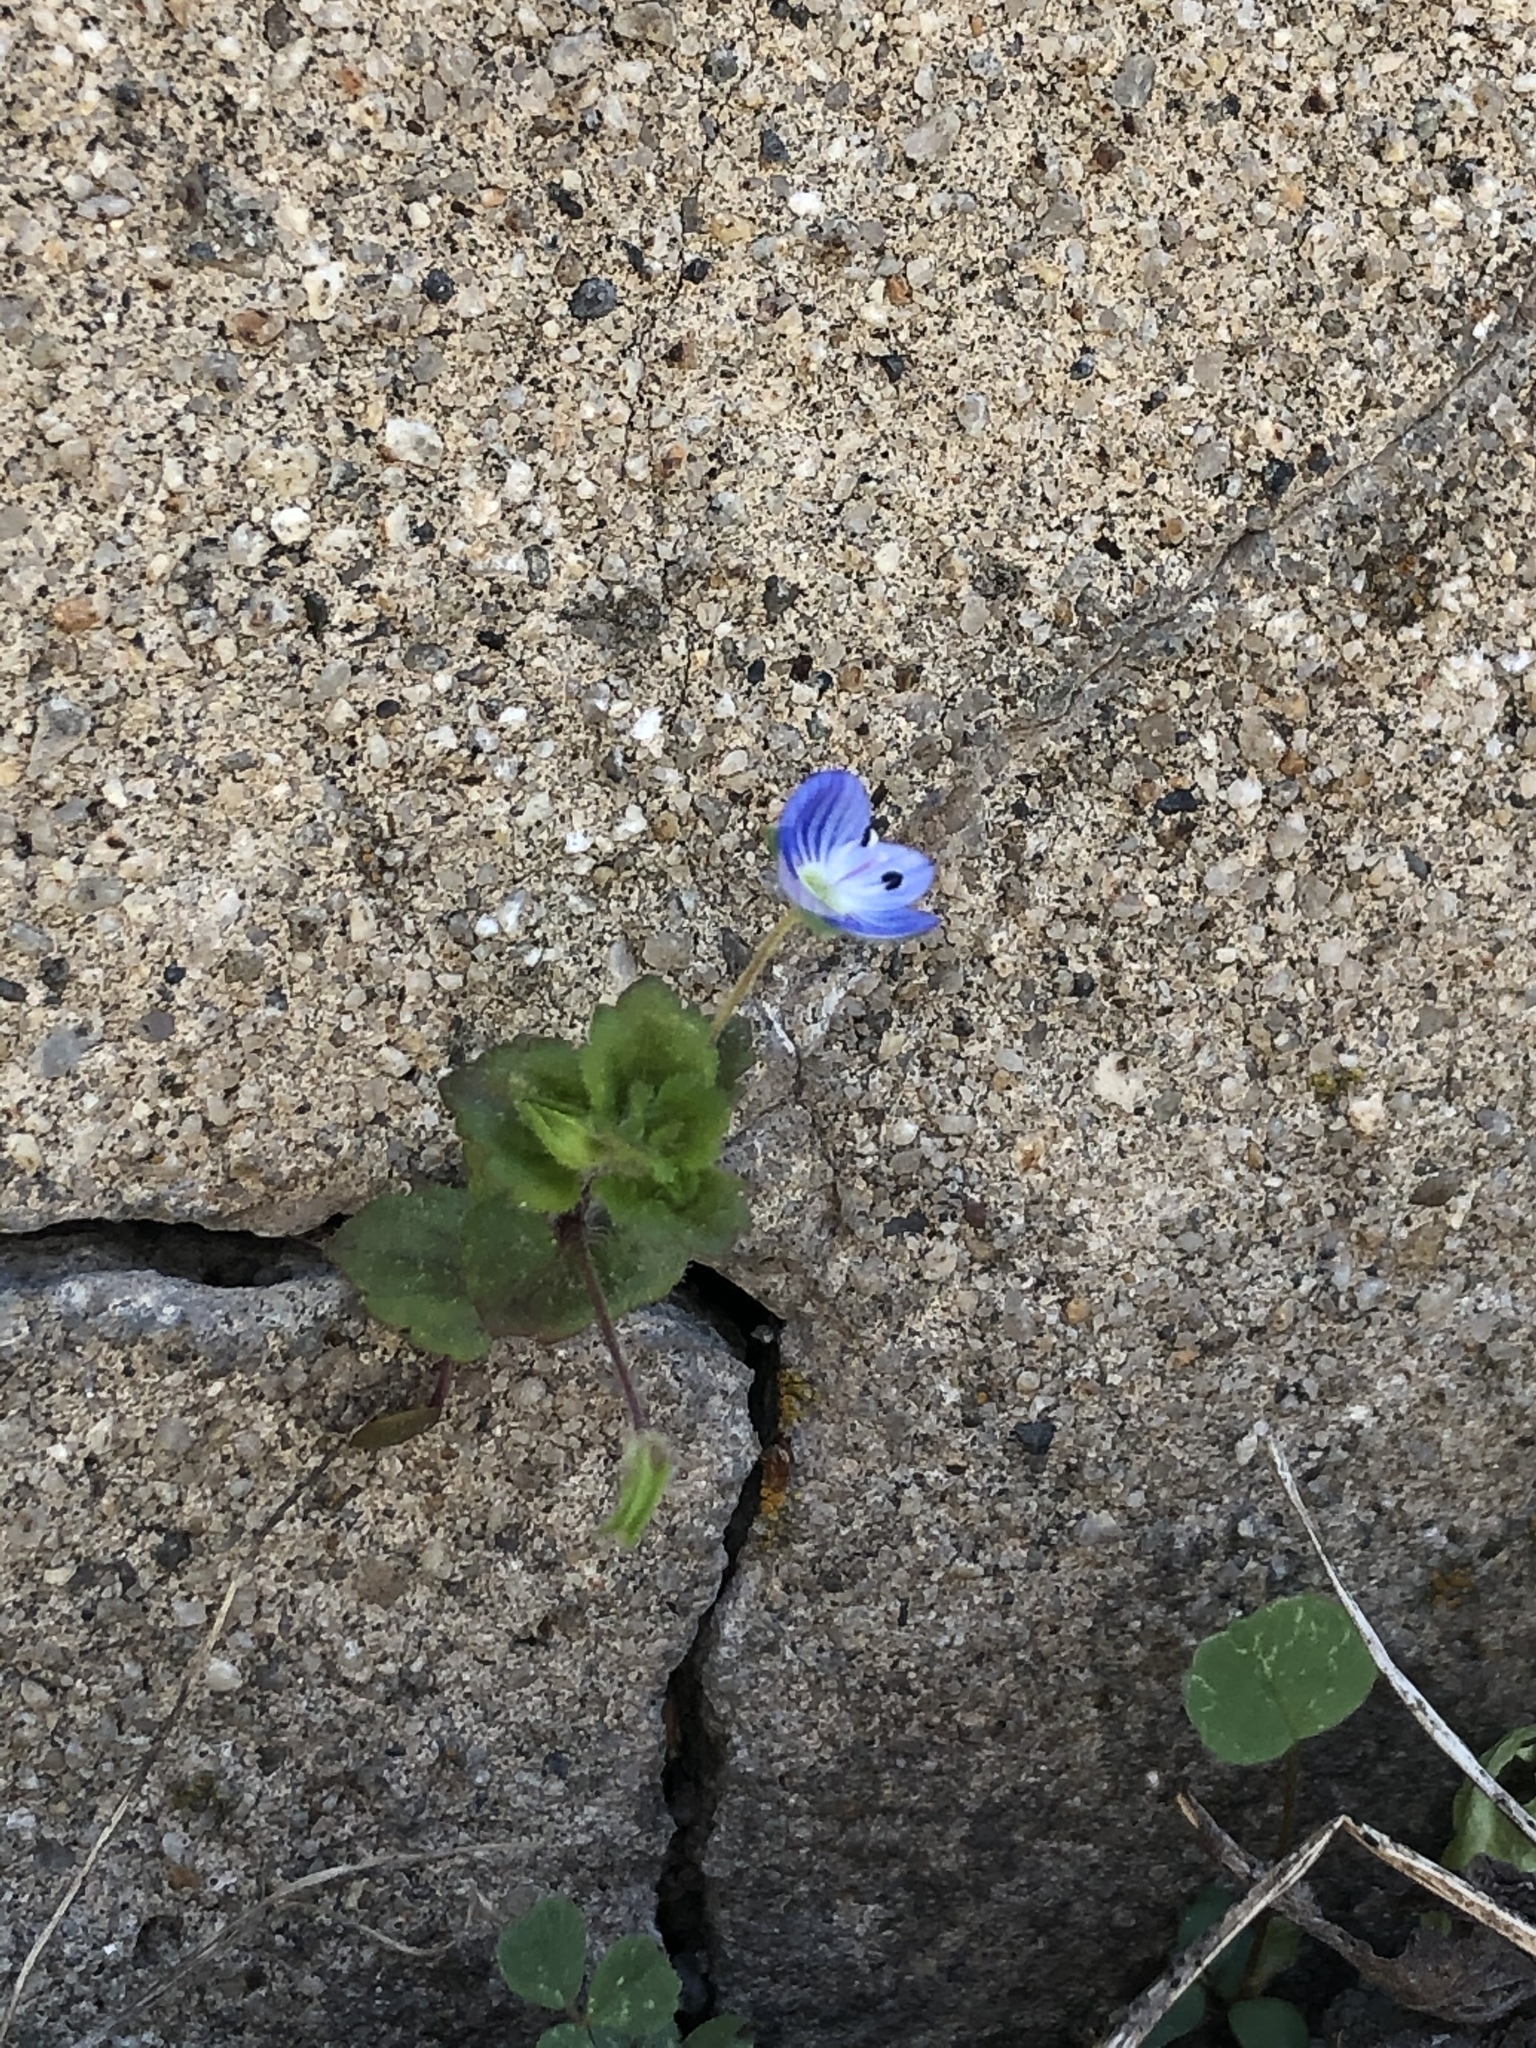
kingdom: Plantae
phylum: Tracheophyta
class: Magnoliopsida
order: Lamiales
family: Plantaginaceae
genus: Veronica
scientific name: Veronica persica
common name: Common field-speedwell
